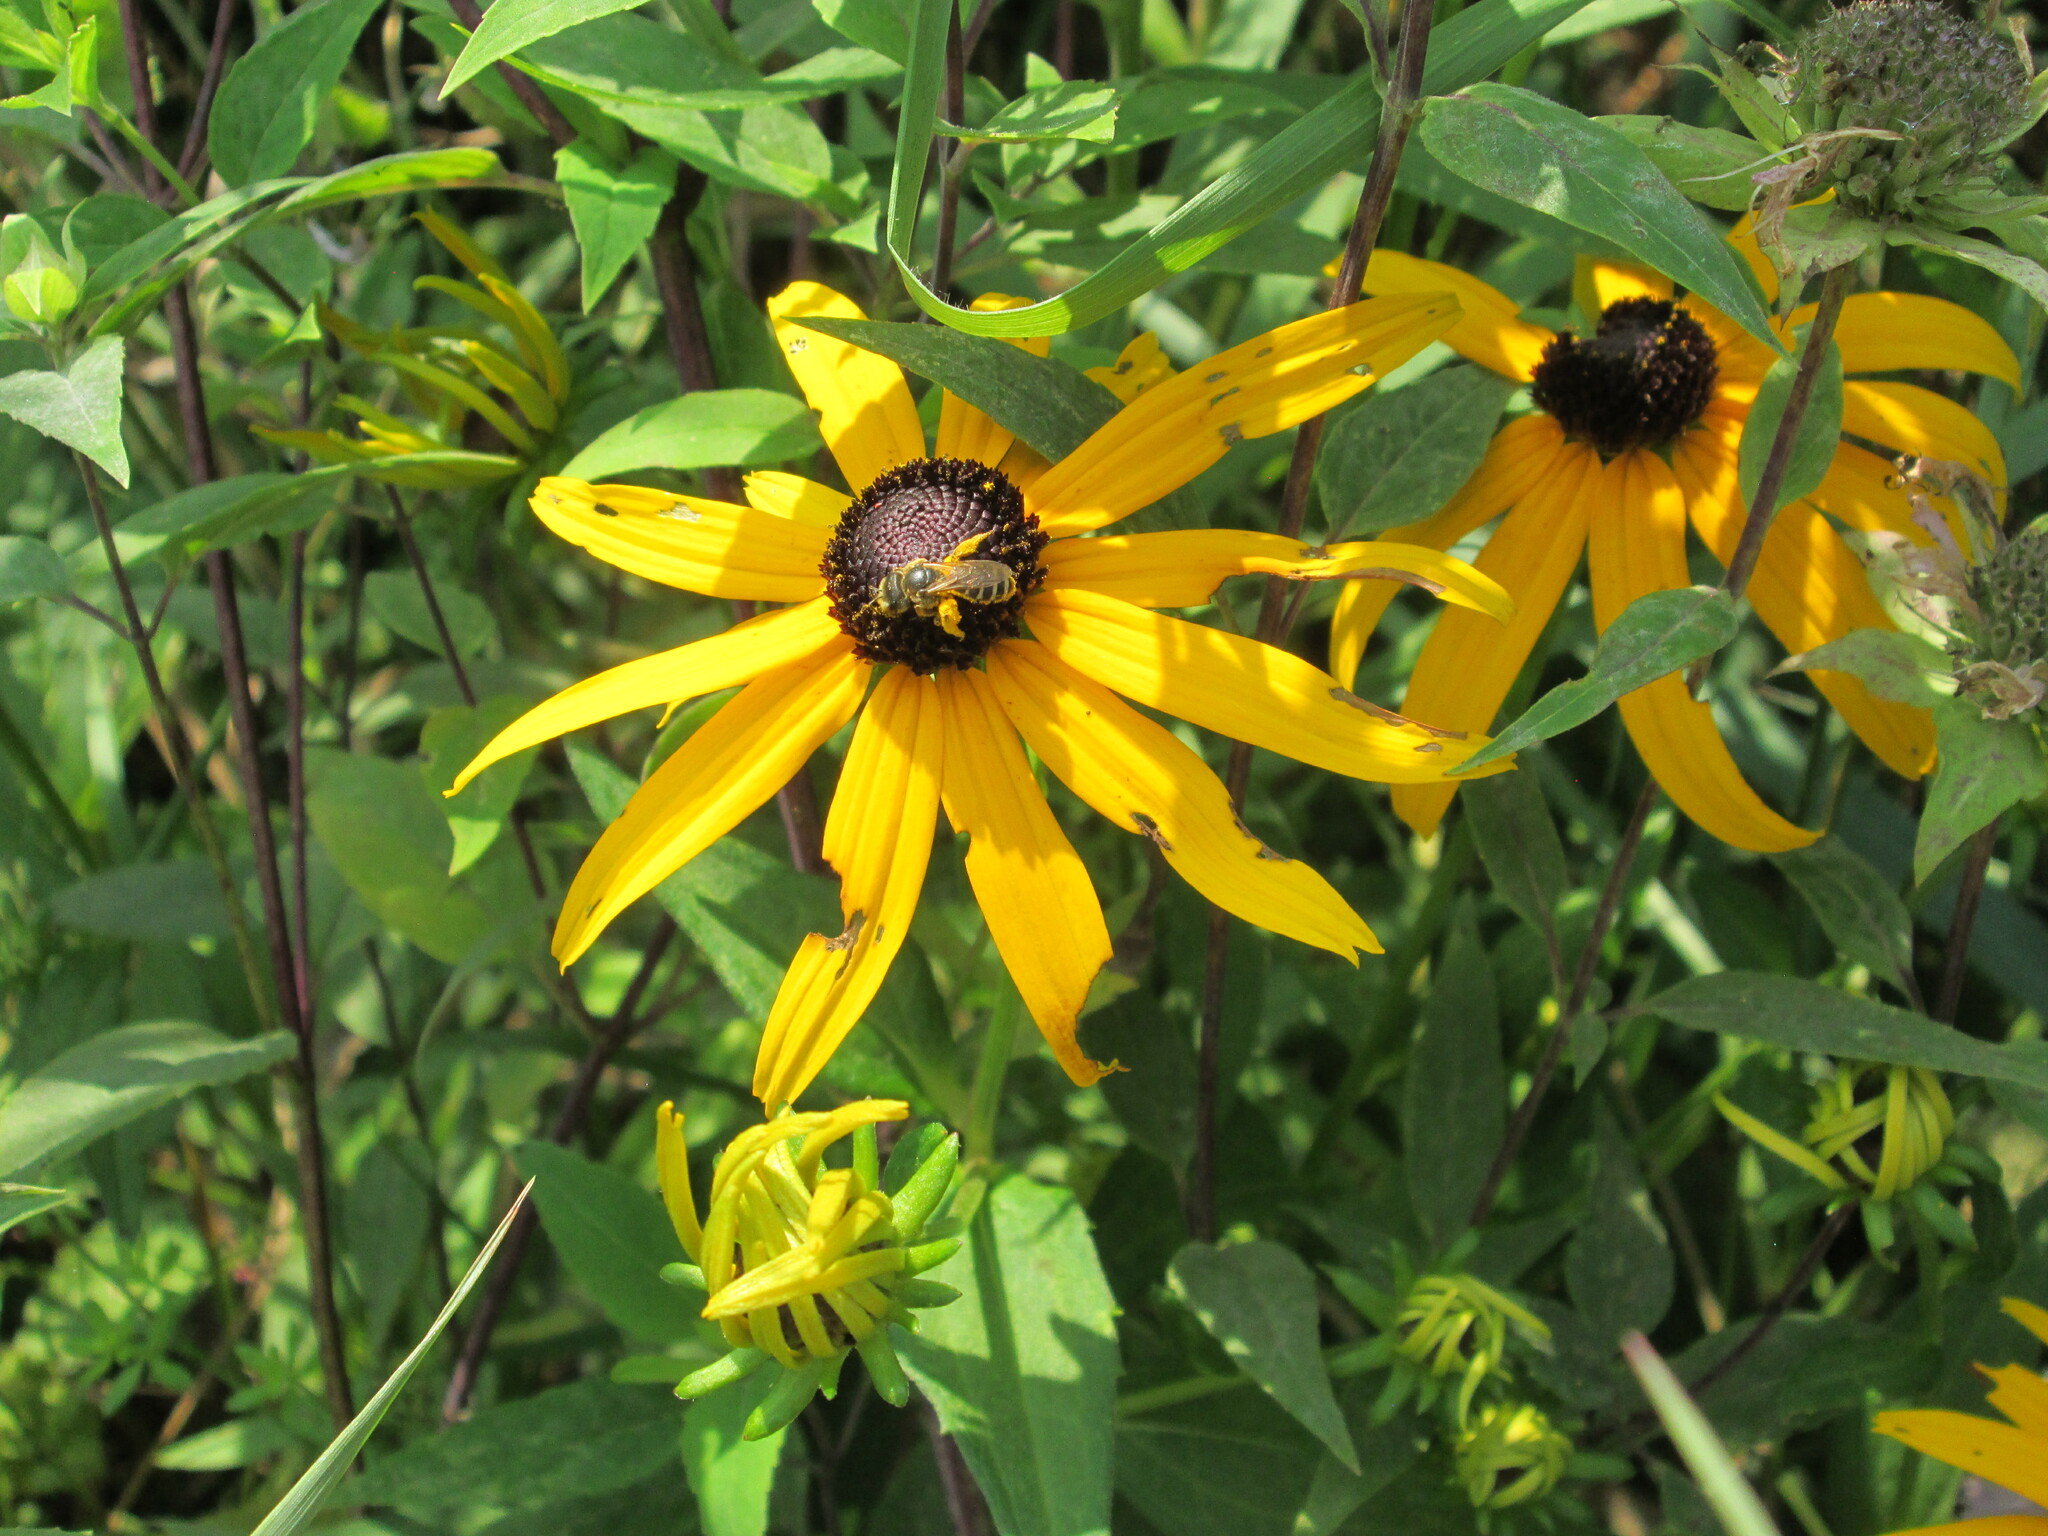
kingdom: Animalia
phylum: Arthropoda
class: Insecta
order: Hymenoptera
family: Halictidae
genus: Halictus
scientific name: Halictus ligatus
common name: Ligated furrow bee
